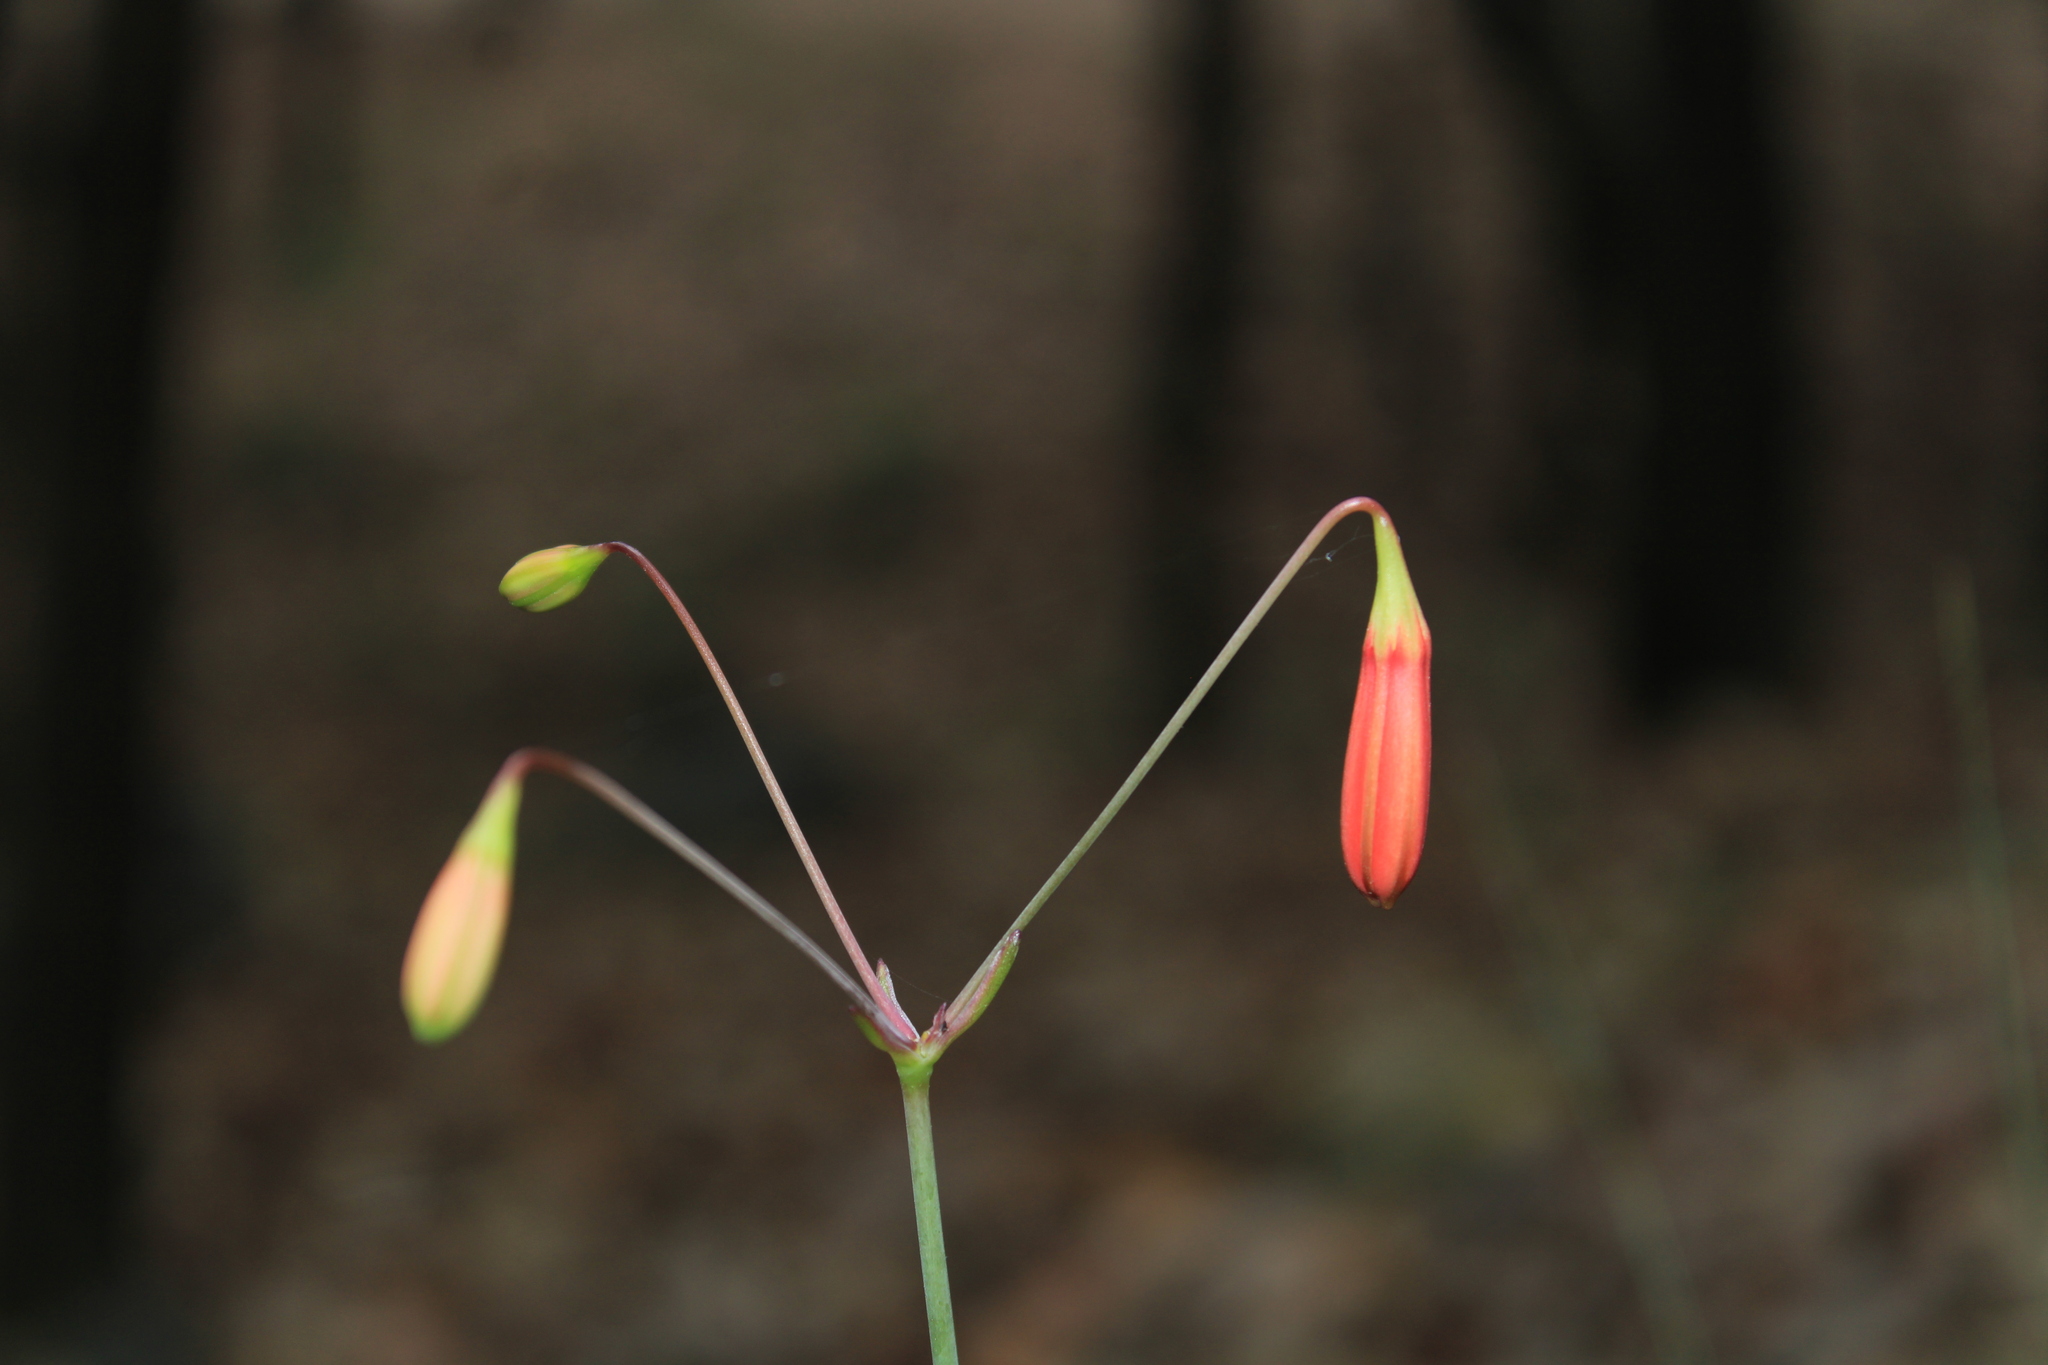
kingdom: Plantae
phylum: Tracheophyta
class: Liliopsida
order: Asparagales
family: Asparagaceae
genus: Bessera
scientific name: Bessera elegans
